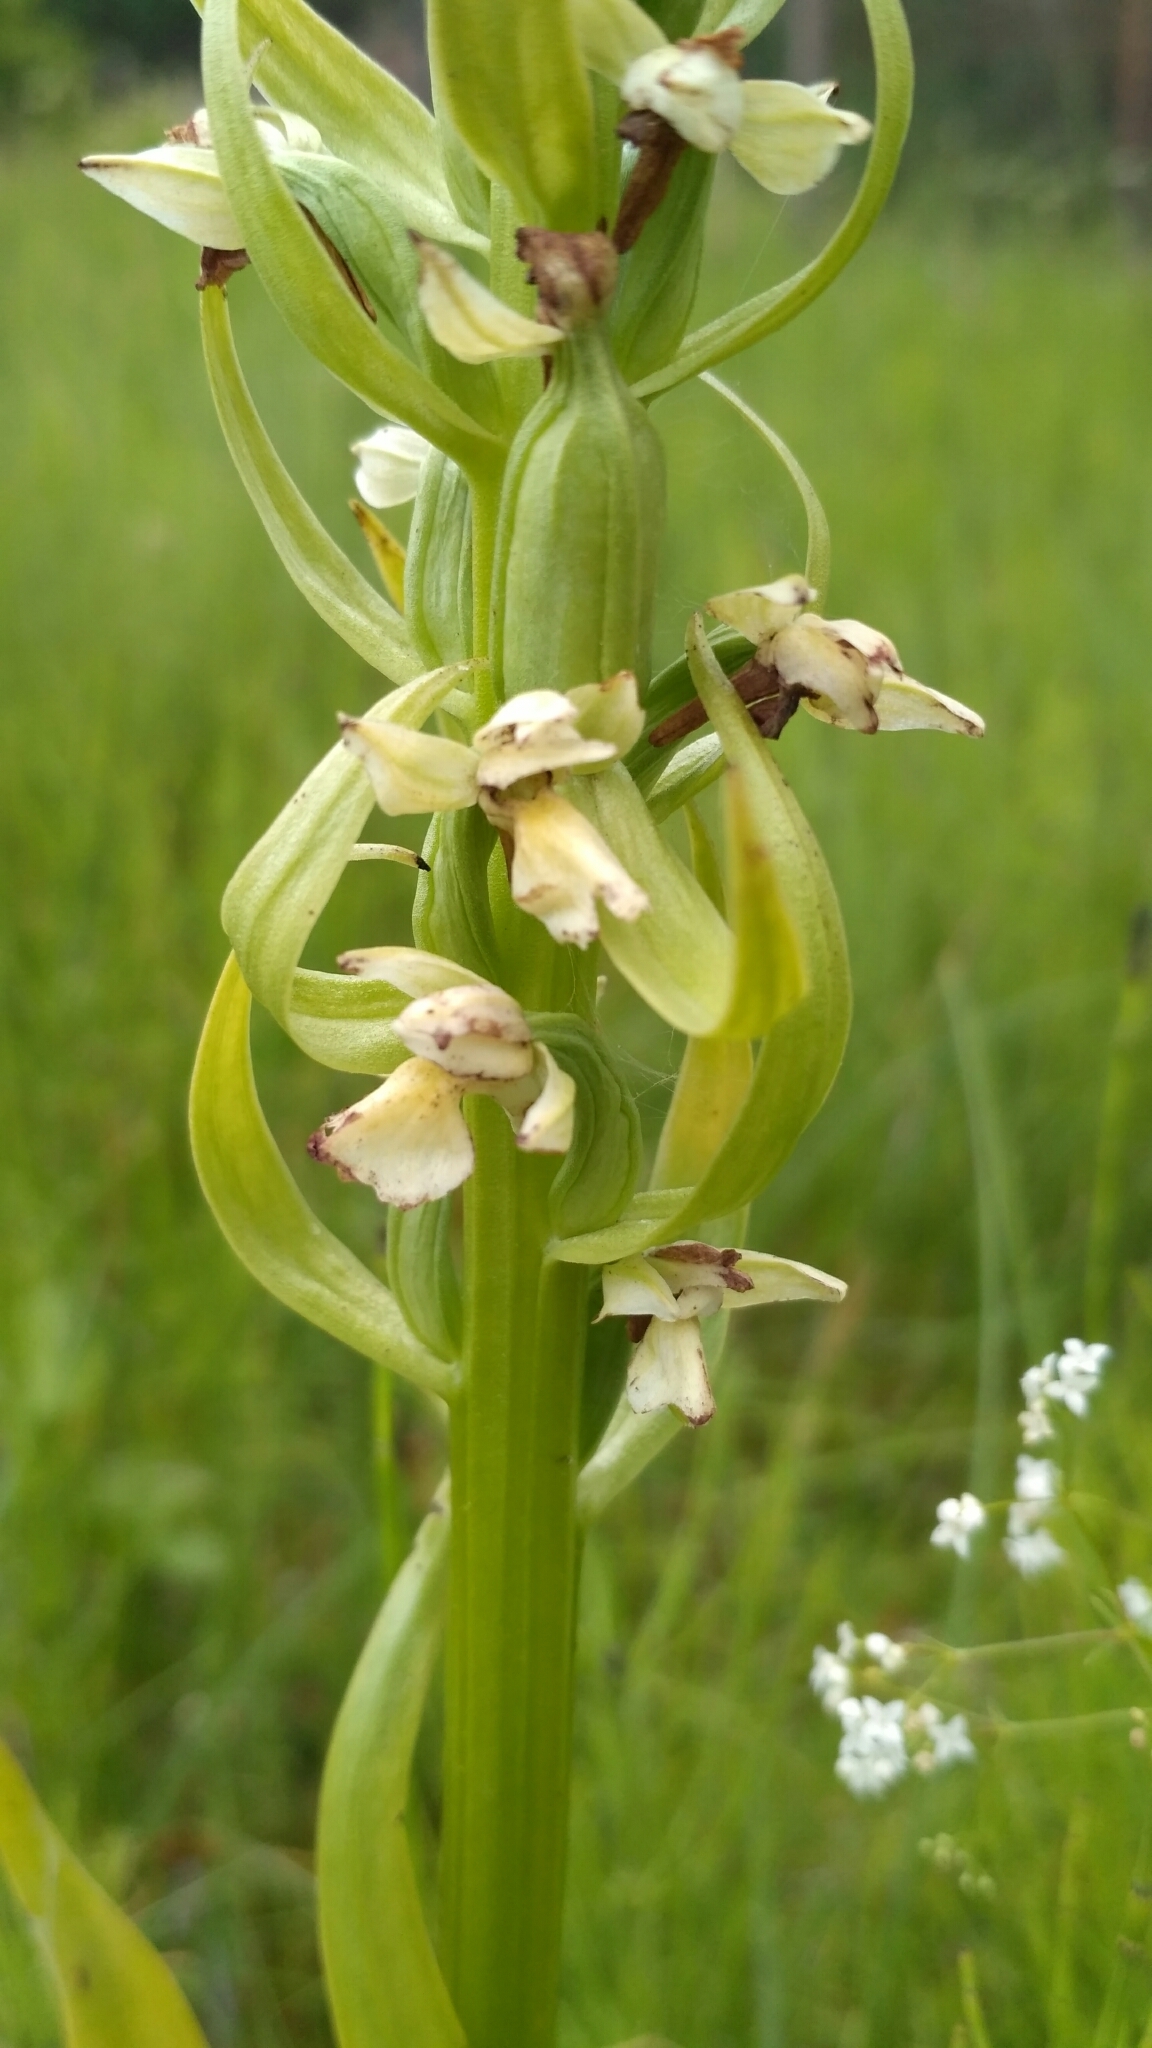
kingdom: Plantae
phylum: Tracheophyta
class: Liliopsida
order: Asparagales
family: Orchidaceae
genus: Dactylorhiza
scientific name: Dactylorhiza incarnata
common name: Early marsh-orchid
